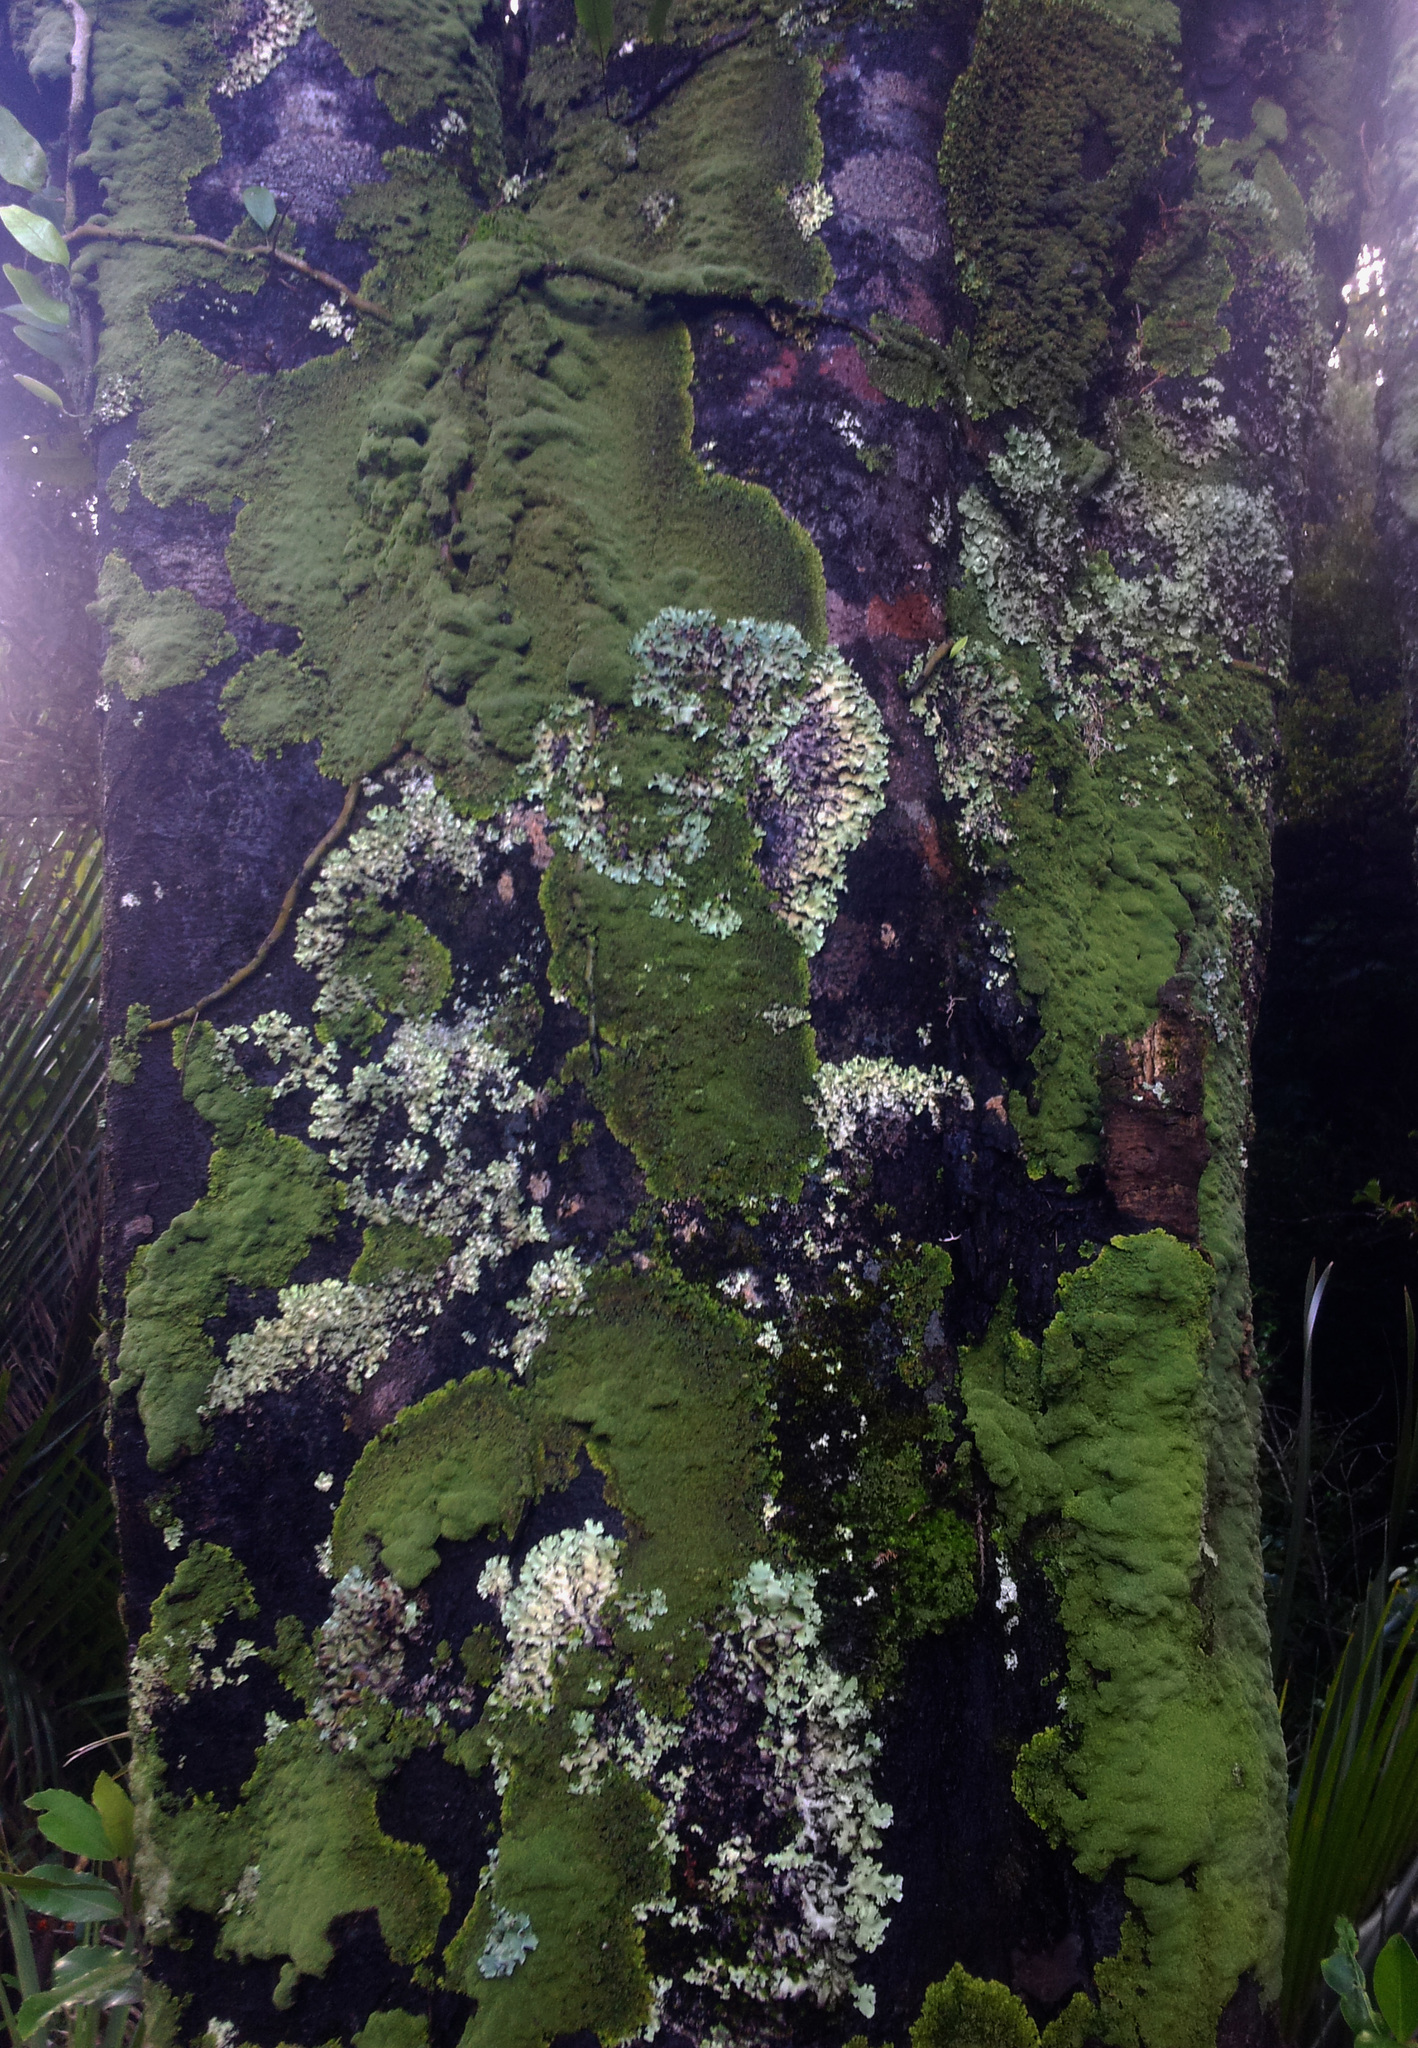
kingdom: Fungi
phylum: Ascomycota
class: Lecanoromycetes
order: Peltigerales
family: Pannariaceae
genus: Pannaria
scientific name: Pannaria minutiphylla
